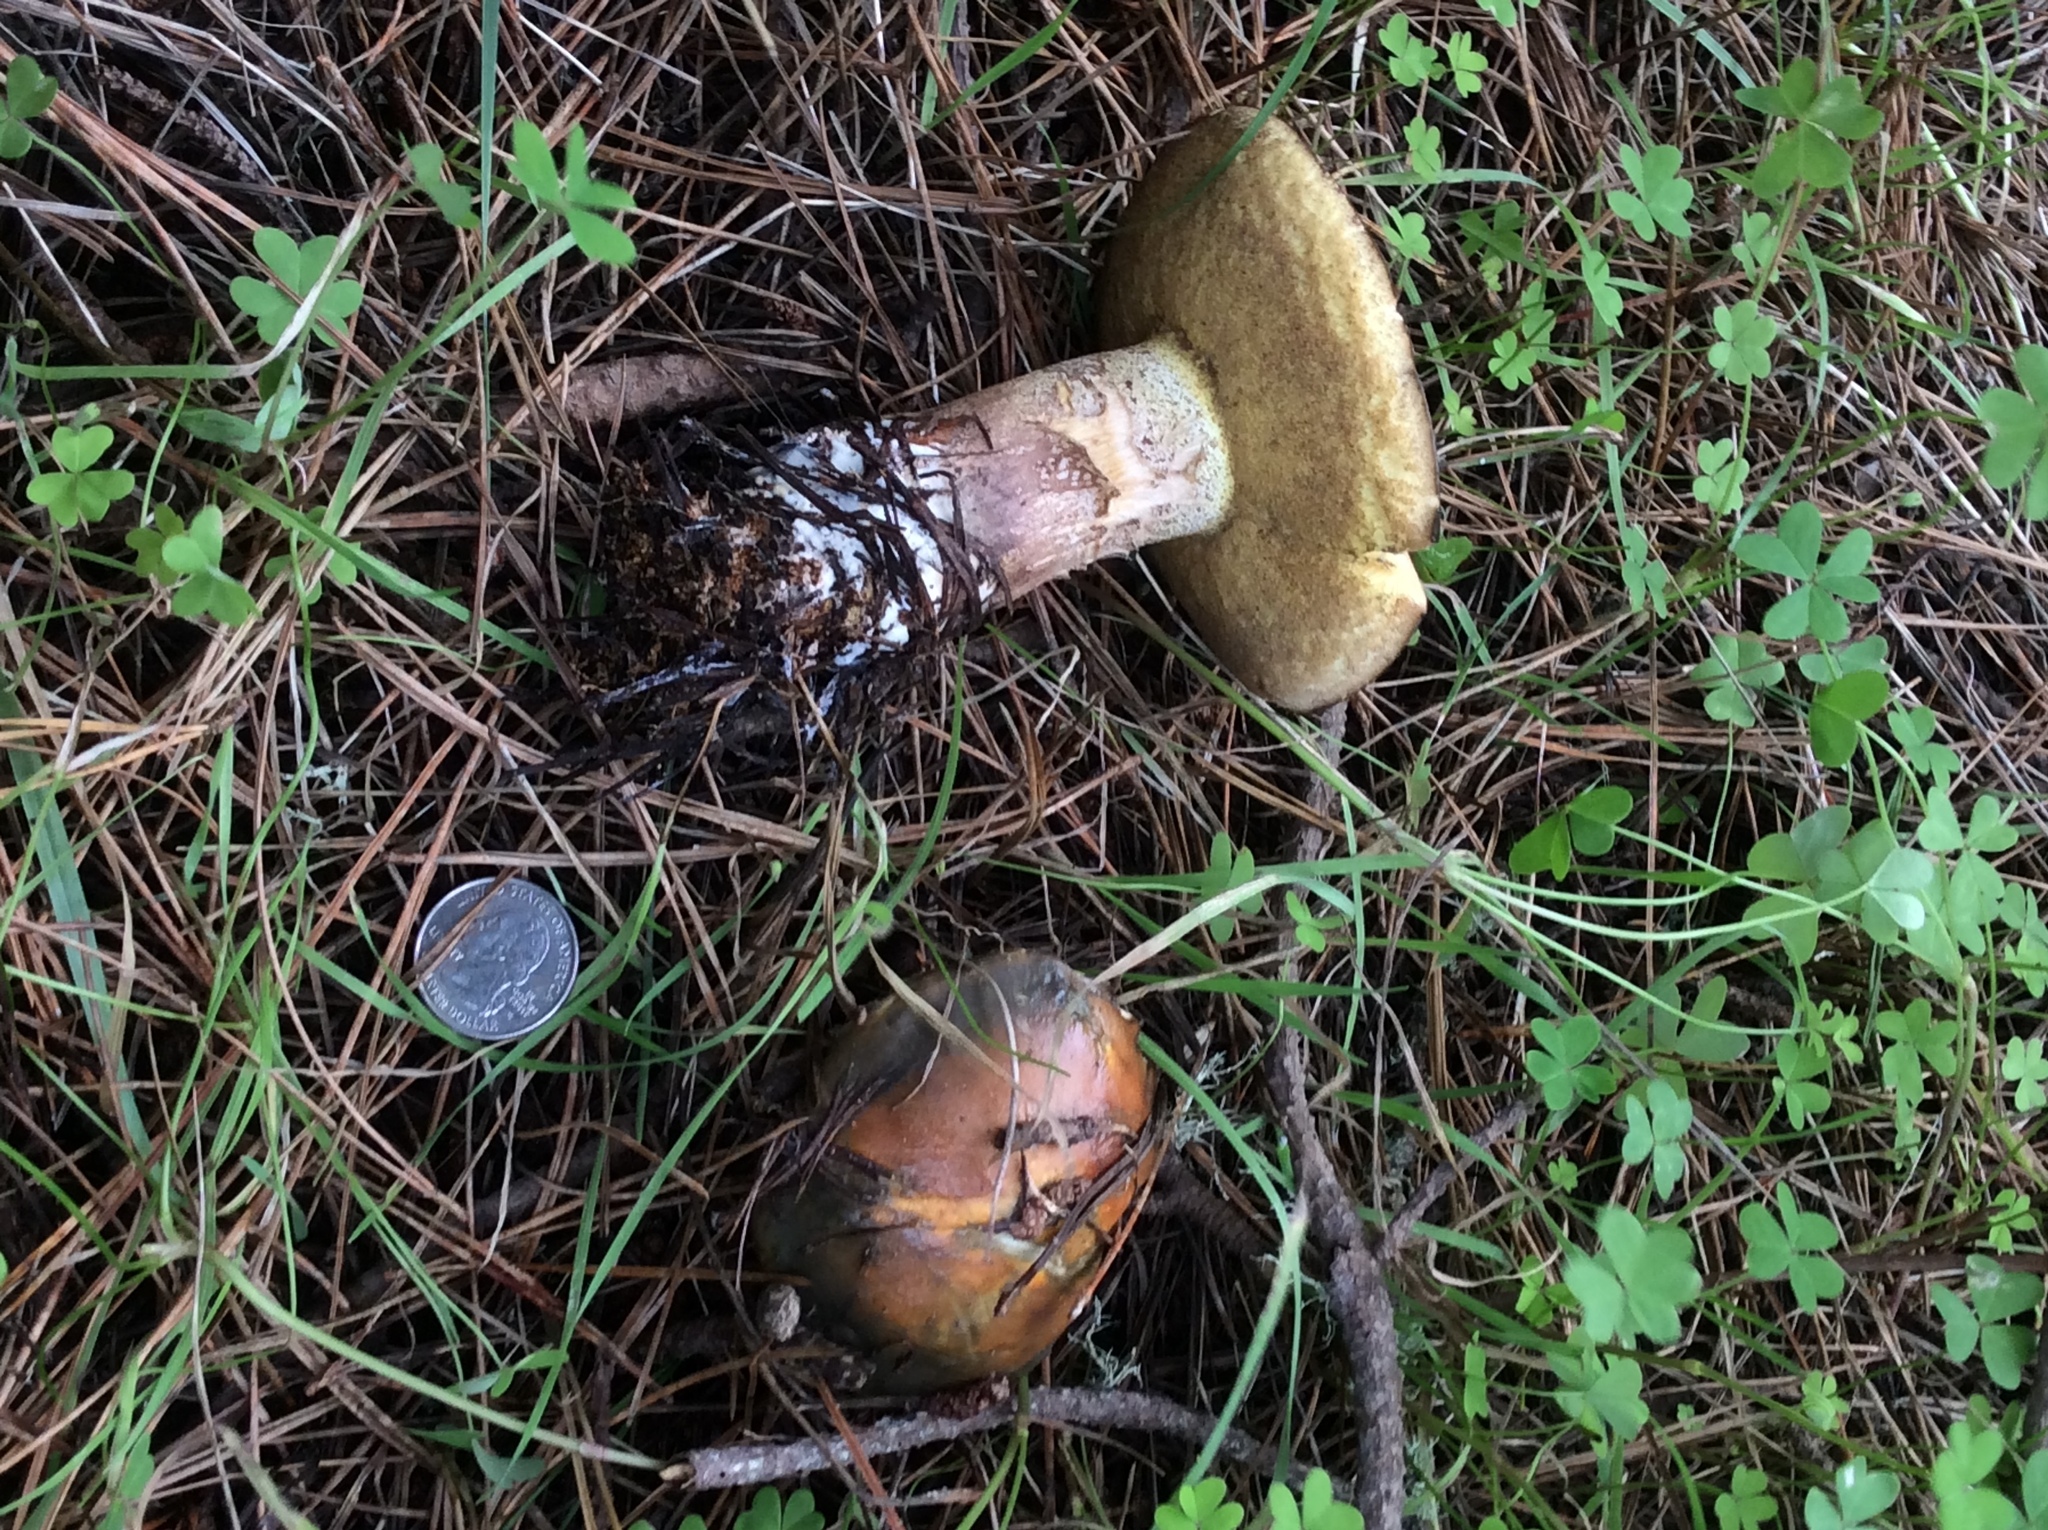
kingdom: Fungi
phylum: Basidiomycota
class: Agaricomycetes
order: Boletales
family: Suillaceae
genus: Suillus
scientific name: Suillus pungens
